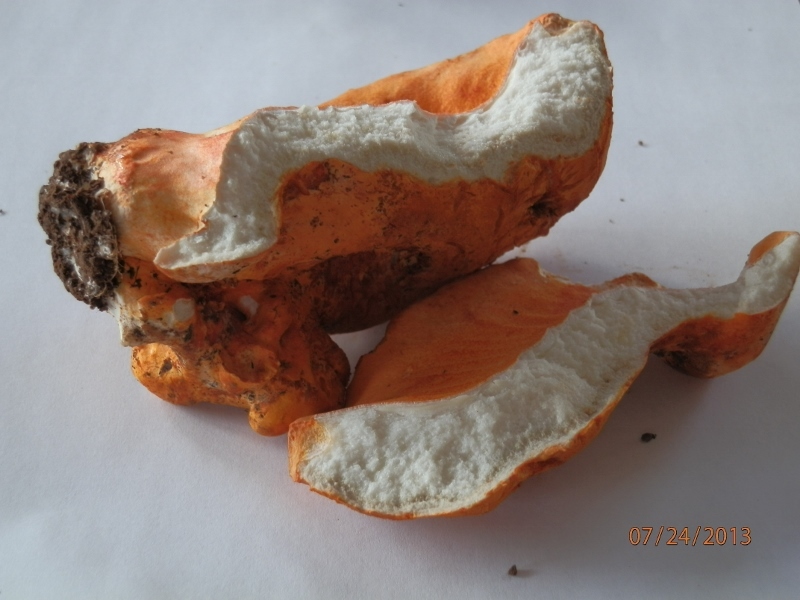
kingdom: Fungi
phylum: Ascomycota
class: Sordariomycetes
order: Hypocreales
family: Hypocreaceae
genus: Hypomyces
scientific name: Hypomyces lactifluorum
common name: Lobster mushroom
